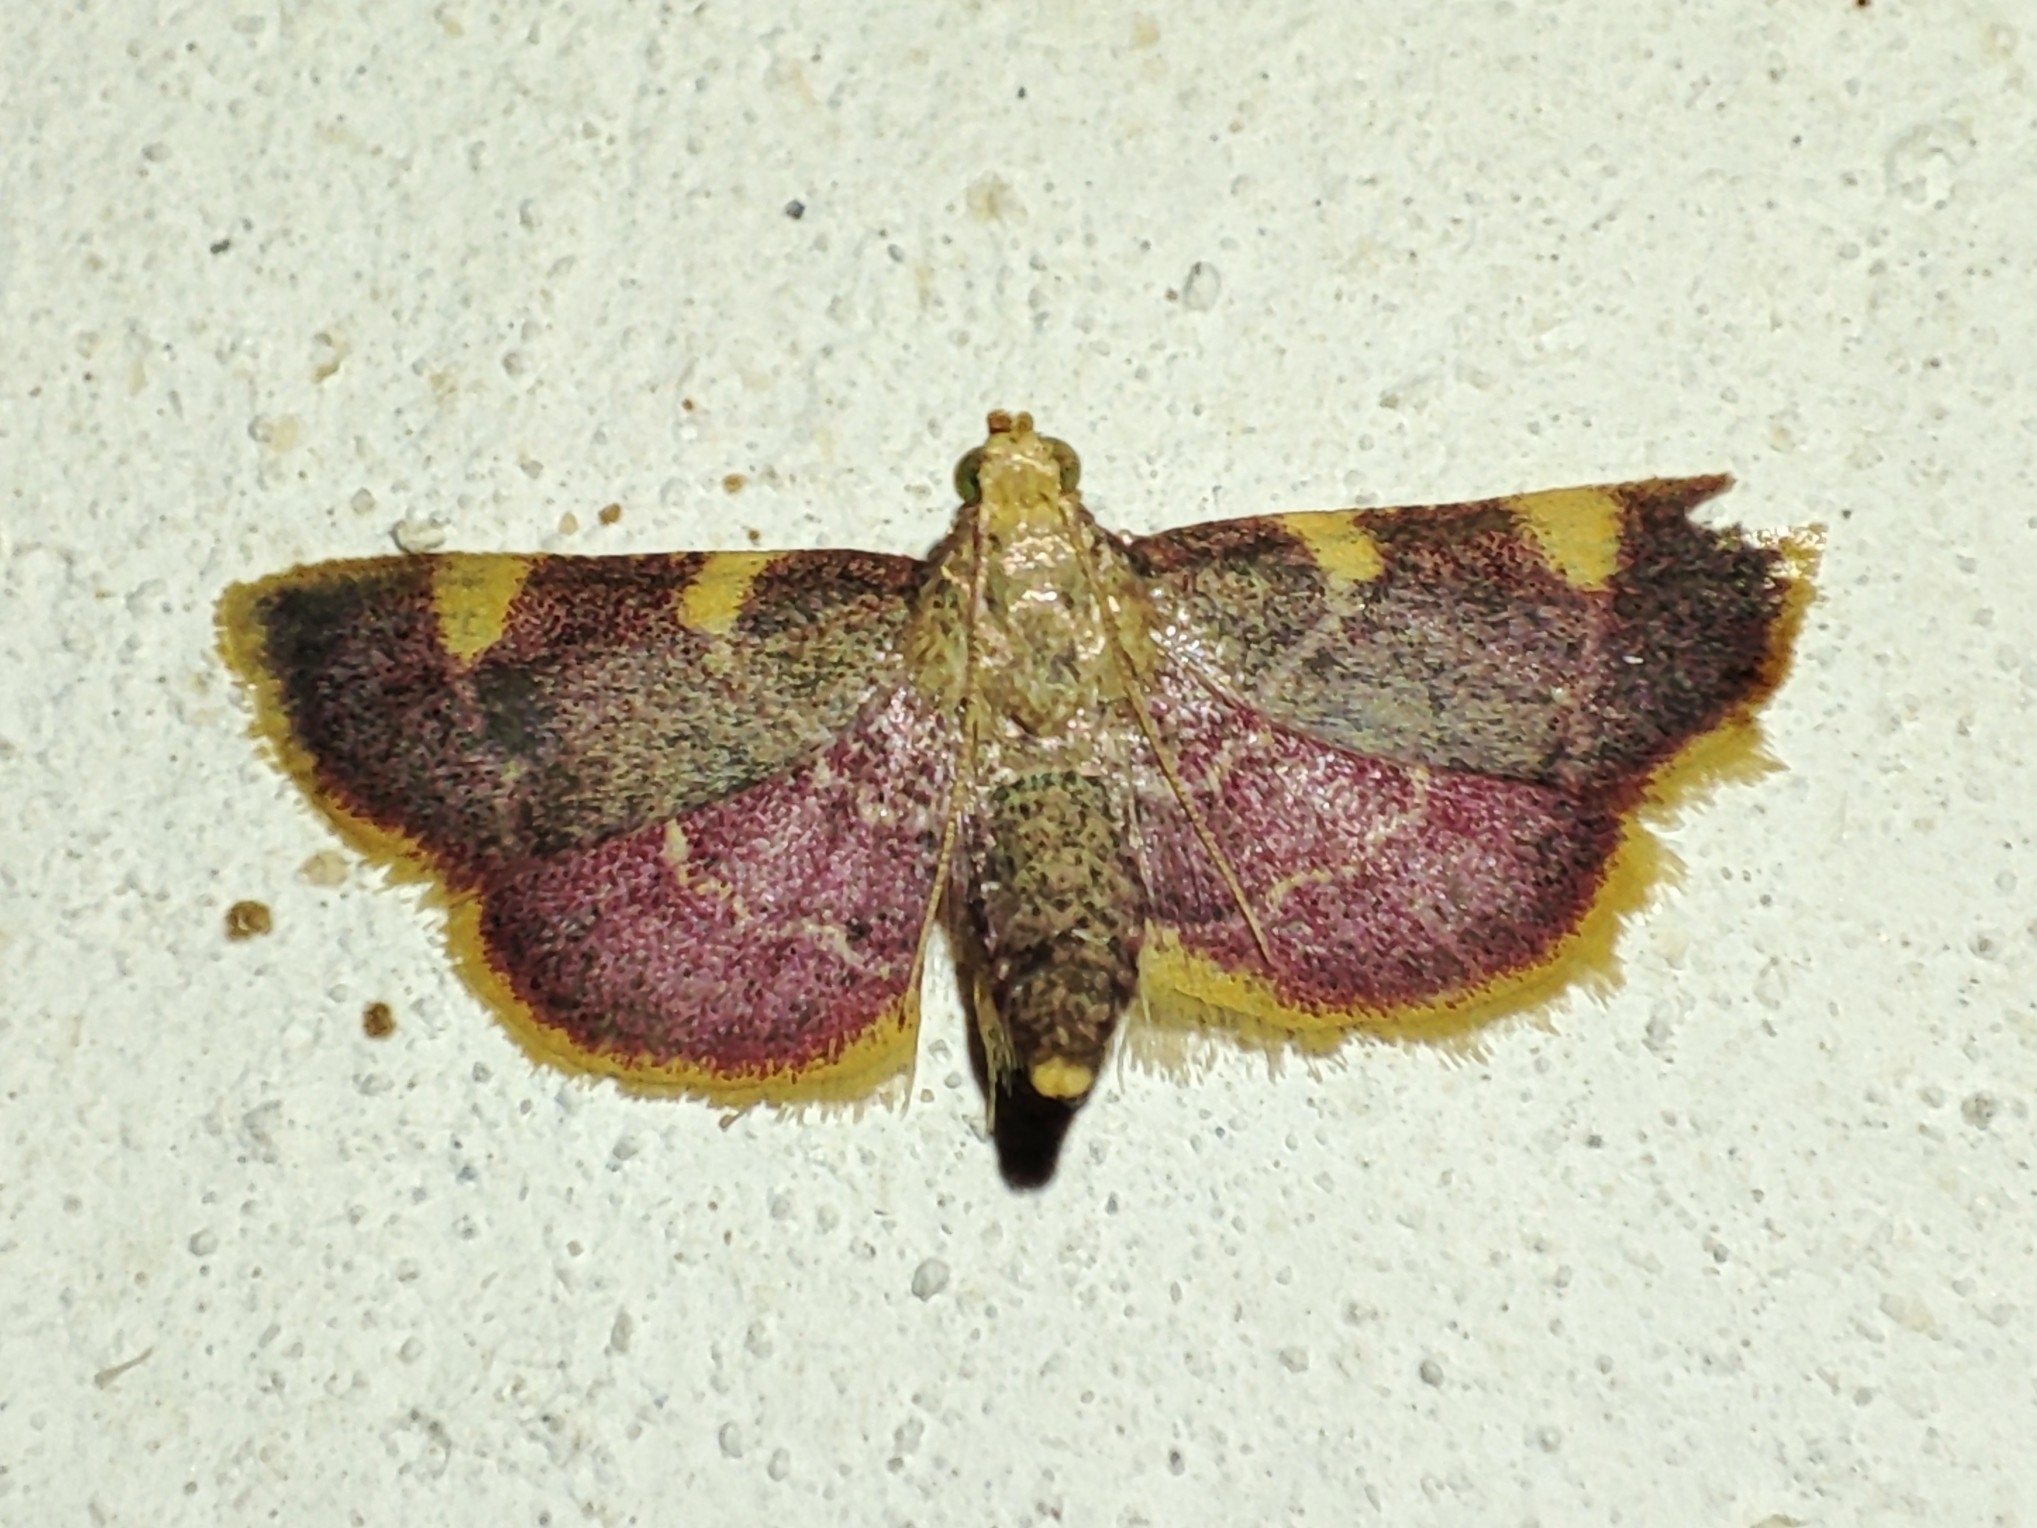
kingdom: Animalia
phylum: Arthropoda
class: Insecta
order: Lepidoptera
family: Pyralidae
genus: Hypsopygia
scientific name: Hypsopygia costalis
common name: Gold triangle
